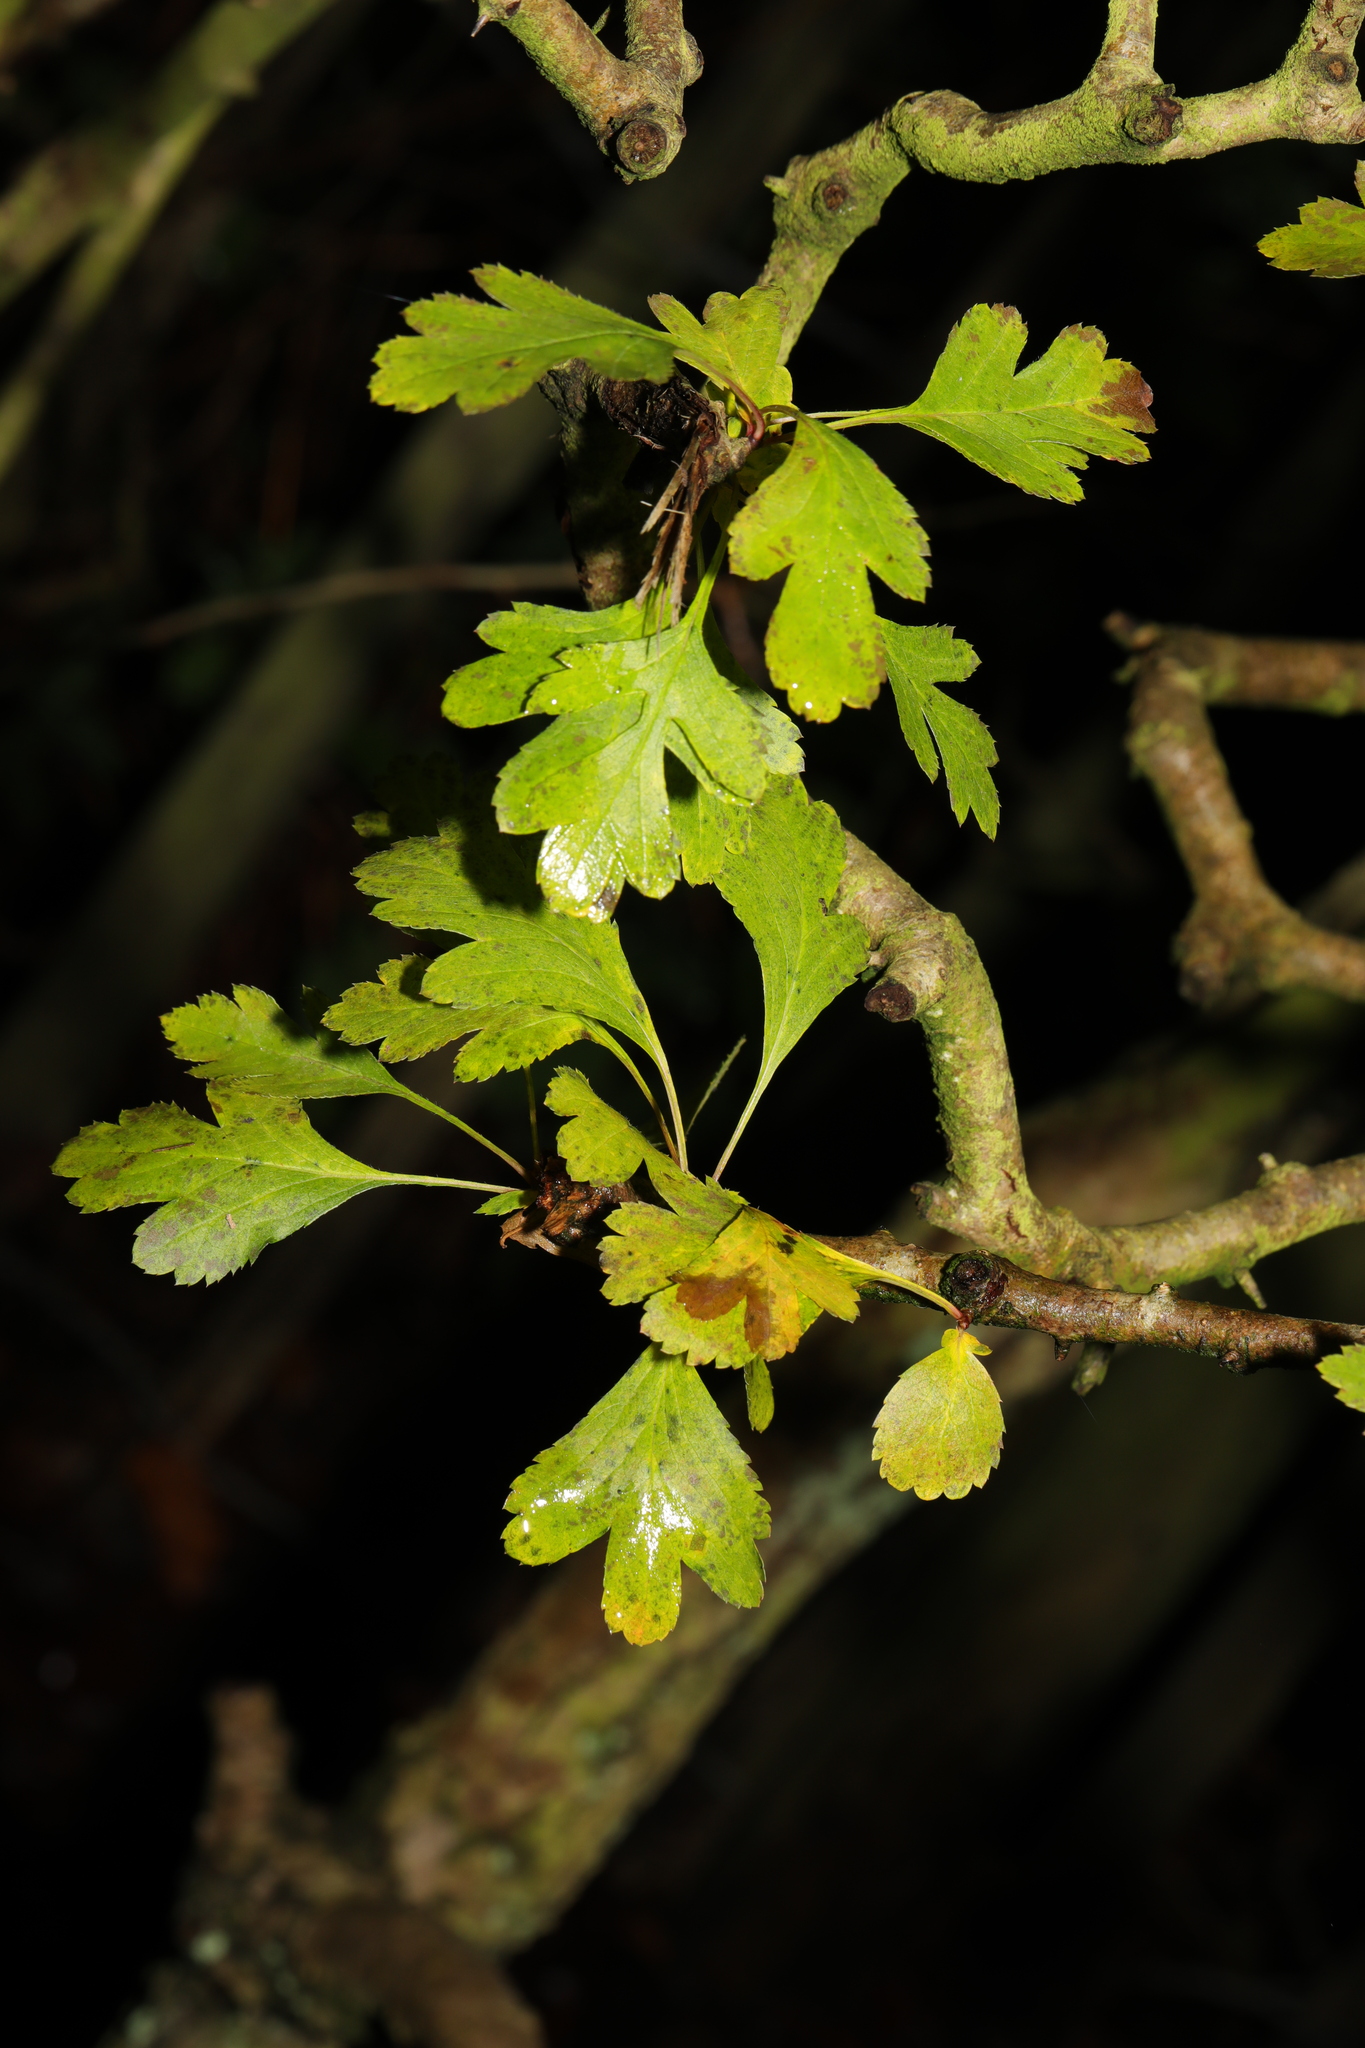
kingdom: Plantae
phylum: Tracheophyta
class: Magnoliopsida
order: Rosales
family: Rosaceae
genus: Crataegus
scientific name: Crataegus monogyna
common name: Hawthorn
